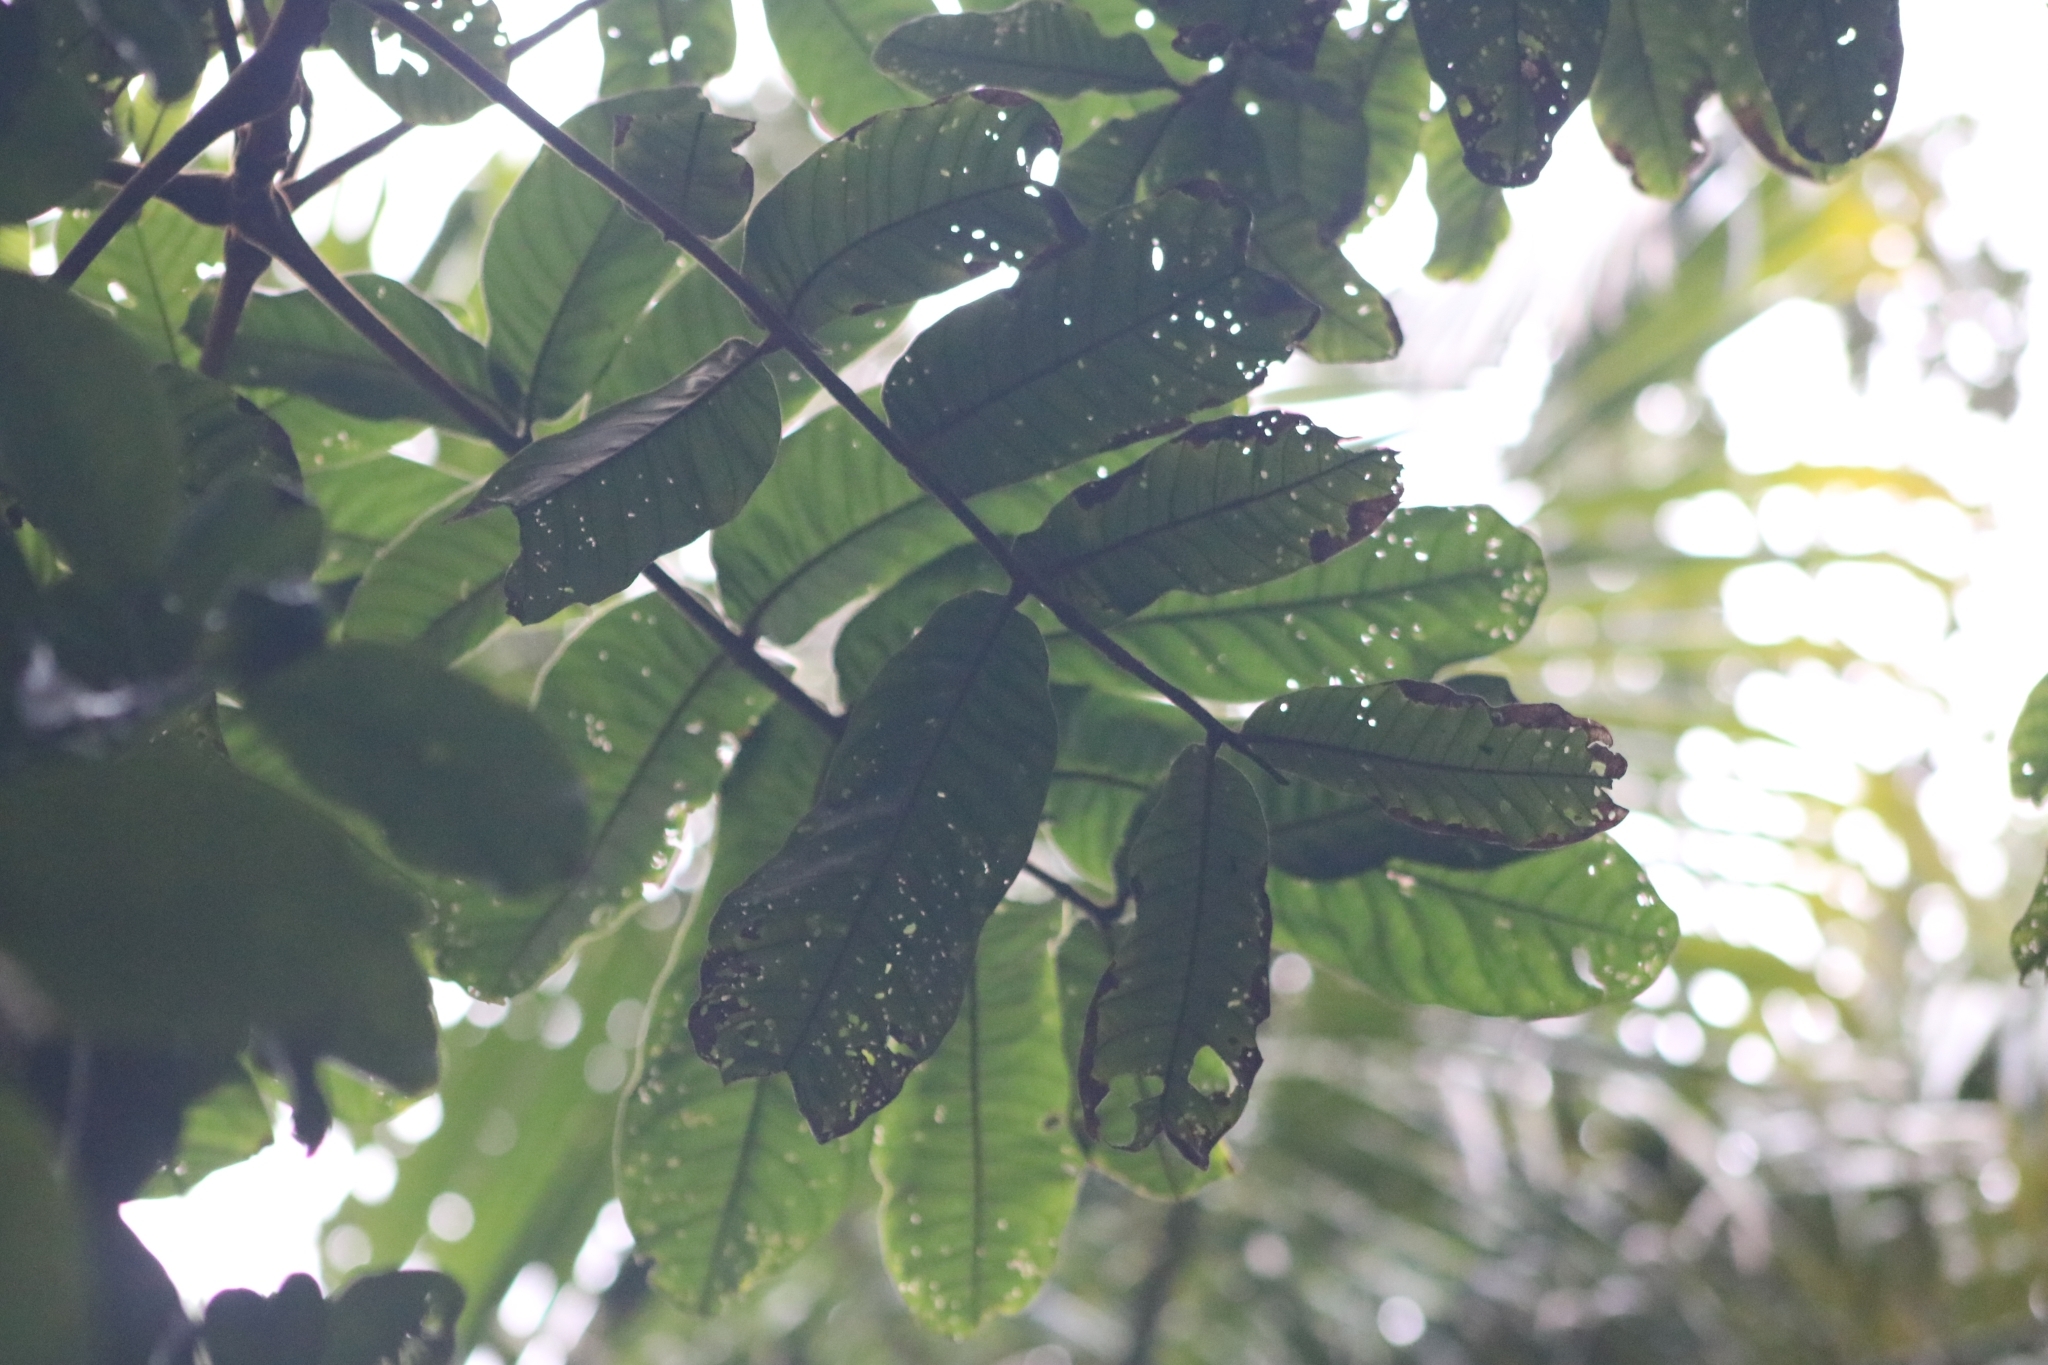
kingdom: Plantae
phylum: Tracheophyta
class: Magnoliopsida
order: Sapindales
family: Sapindaceae
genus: Diploglottis
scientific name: Diploglottis australis
